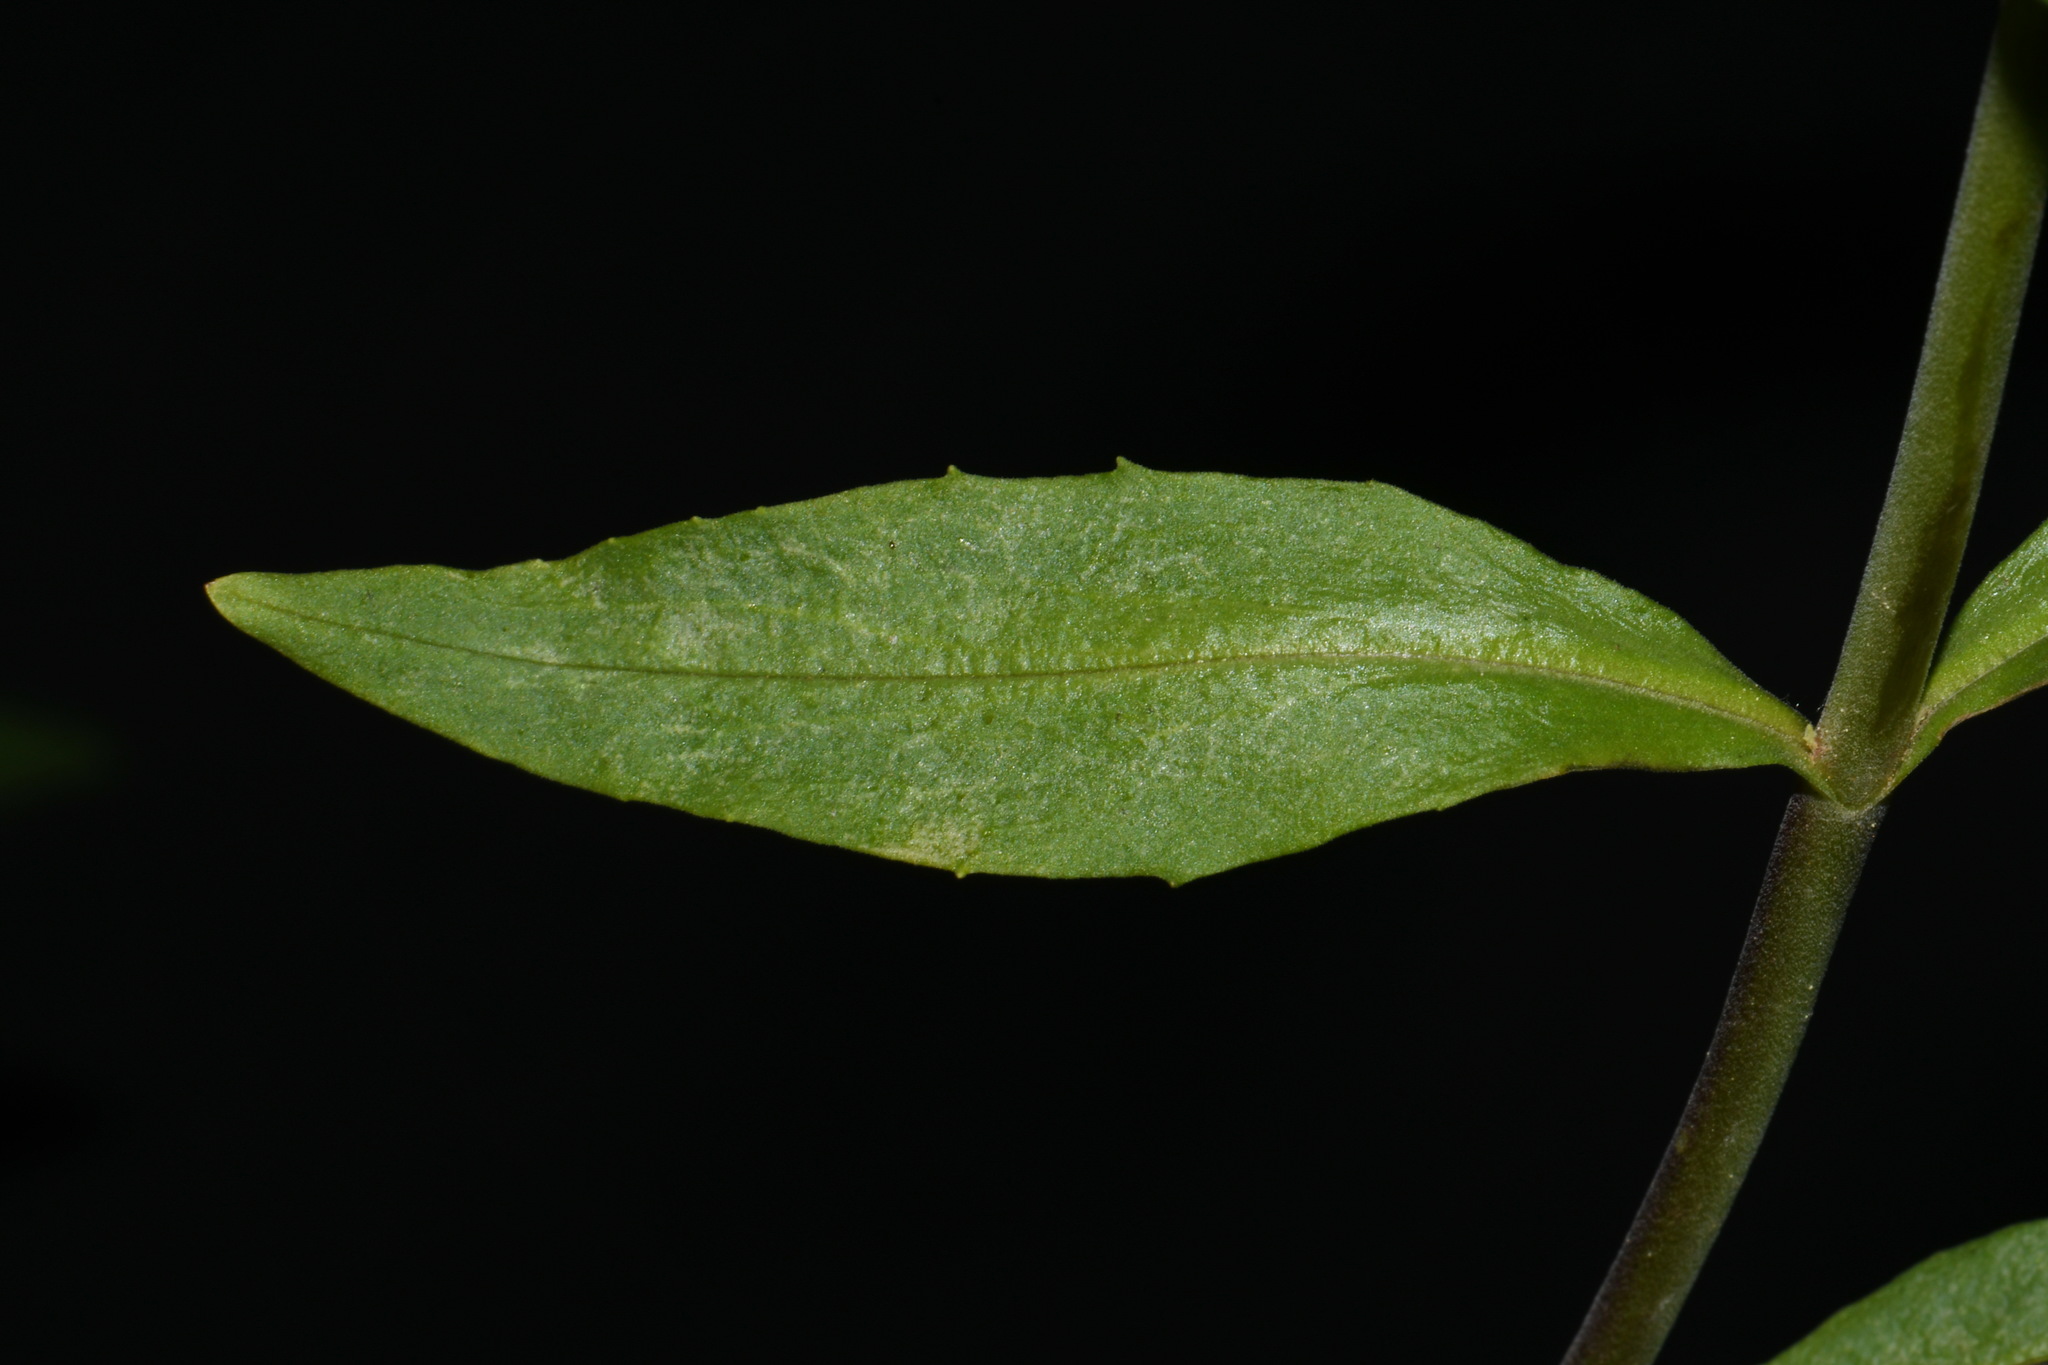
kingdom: Plantae
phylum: Tracheophyta
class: Magnoliopsida
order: Lamiales
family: Plantaginaceae
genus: Penstemon
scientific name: Penstemon radicosus
